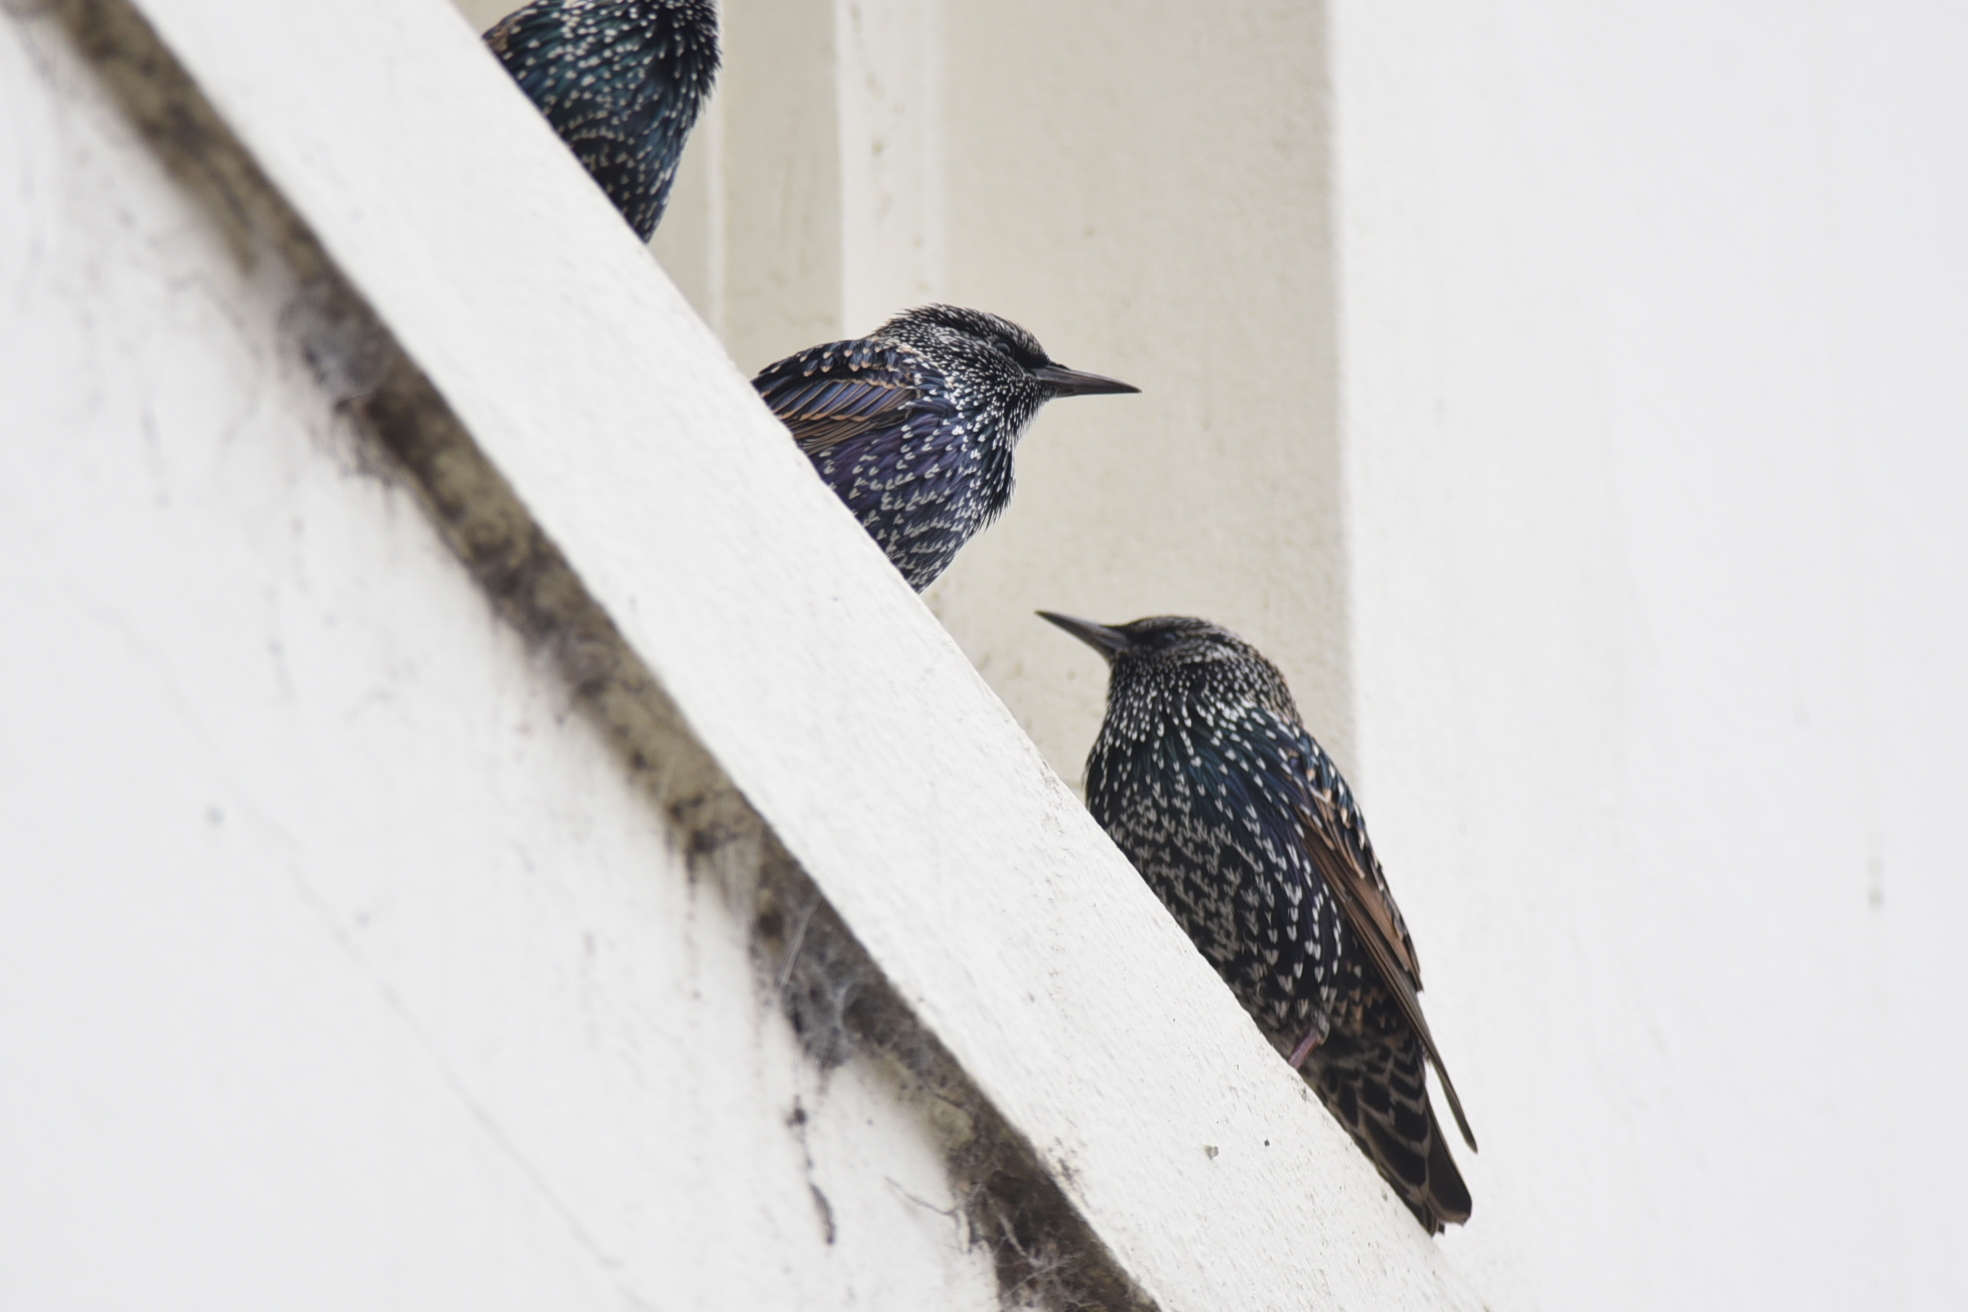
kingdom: Animalia
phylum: Chordata
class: Aves
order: Passeriformes
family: Sturnidae
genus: Sturnus
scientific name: Sturnus vulgaris
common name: Common starling
